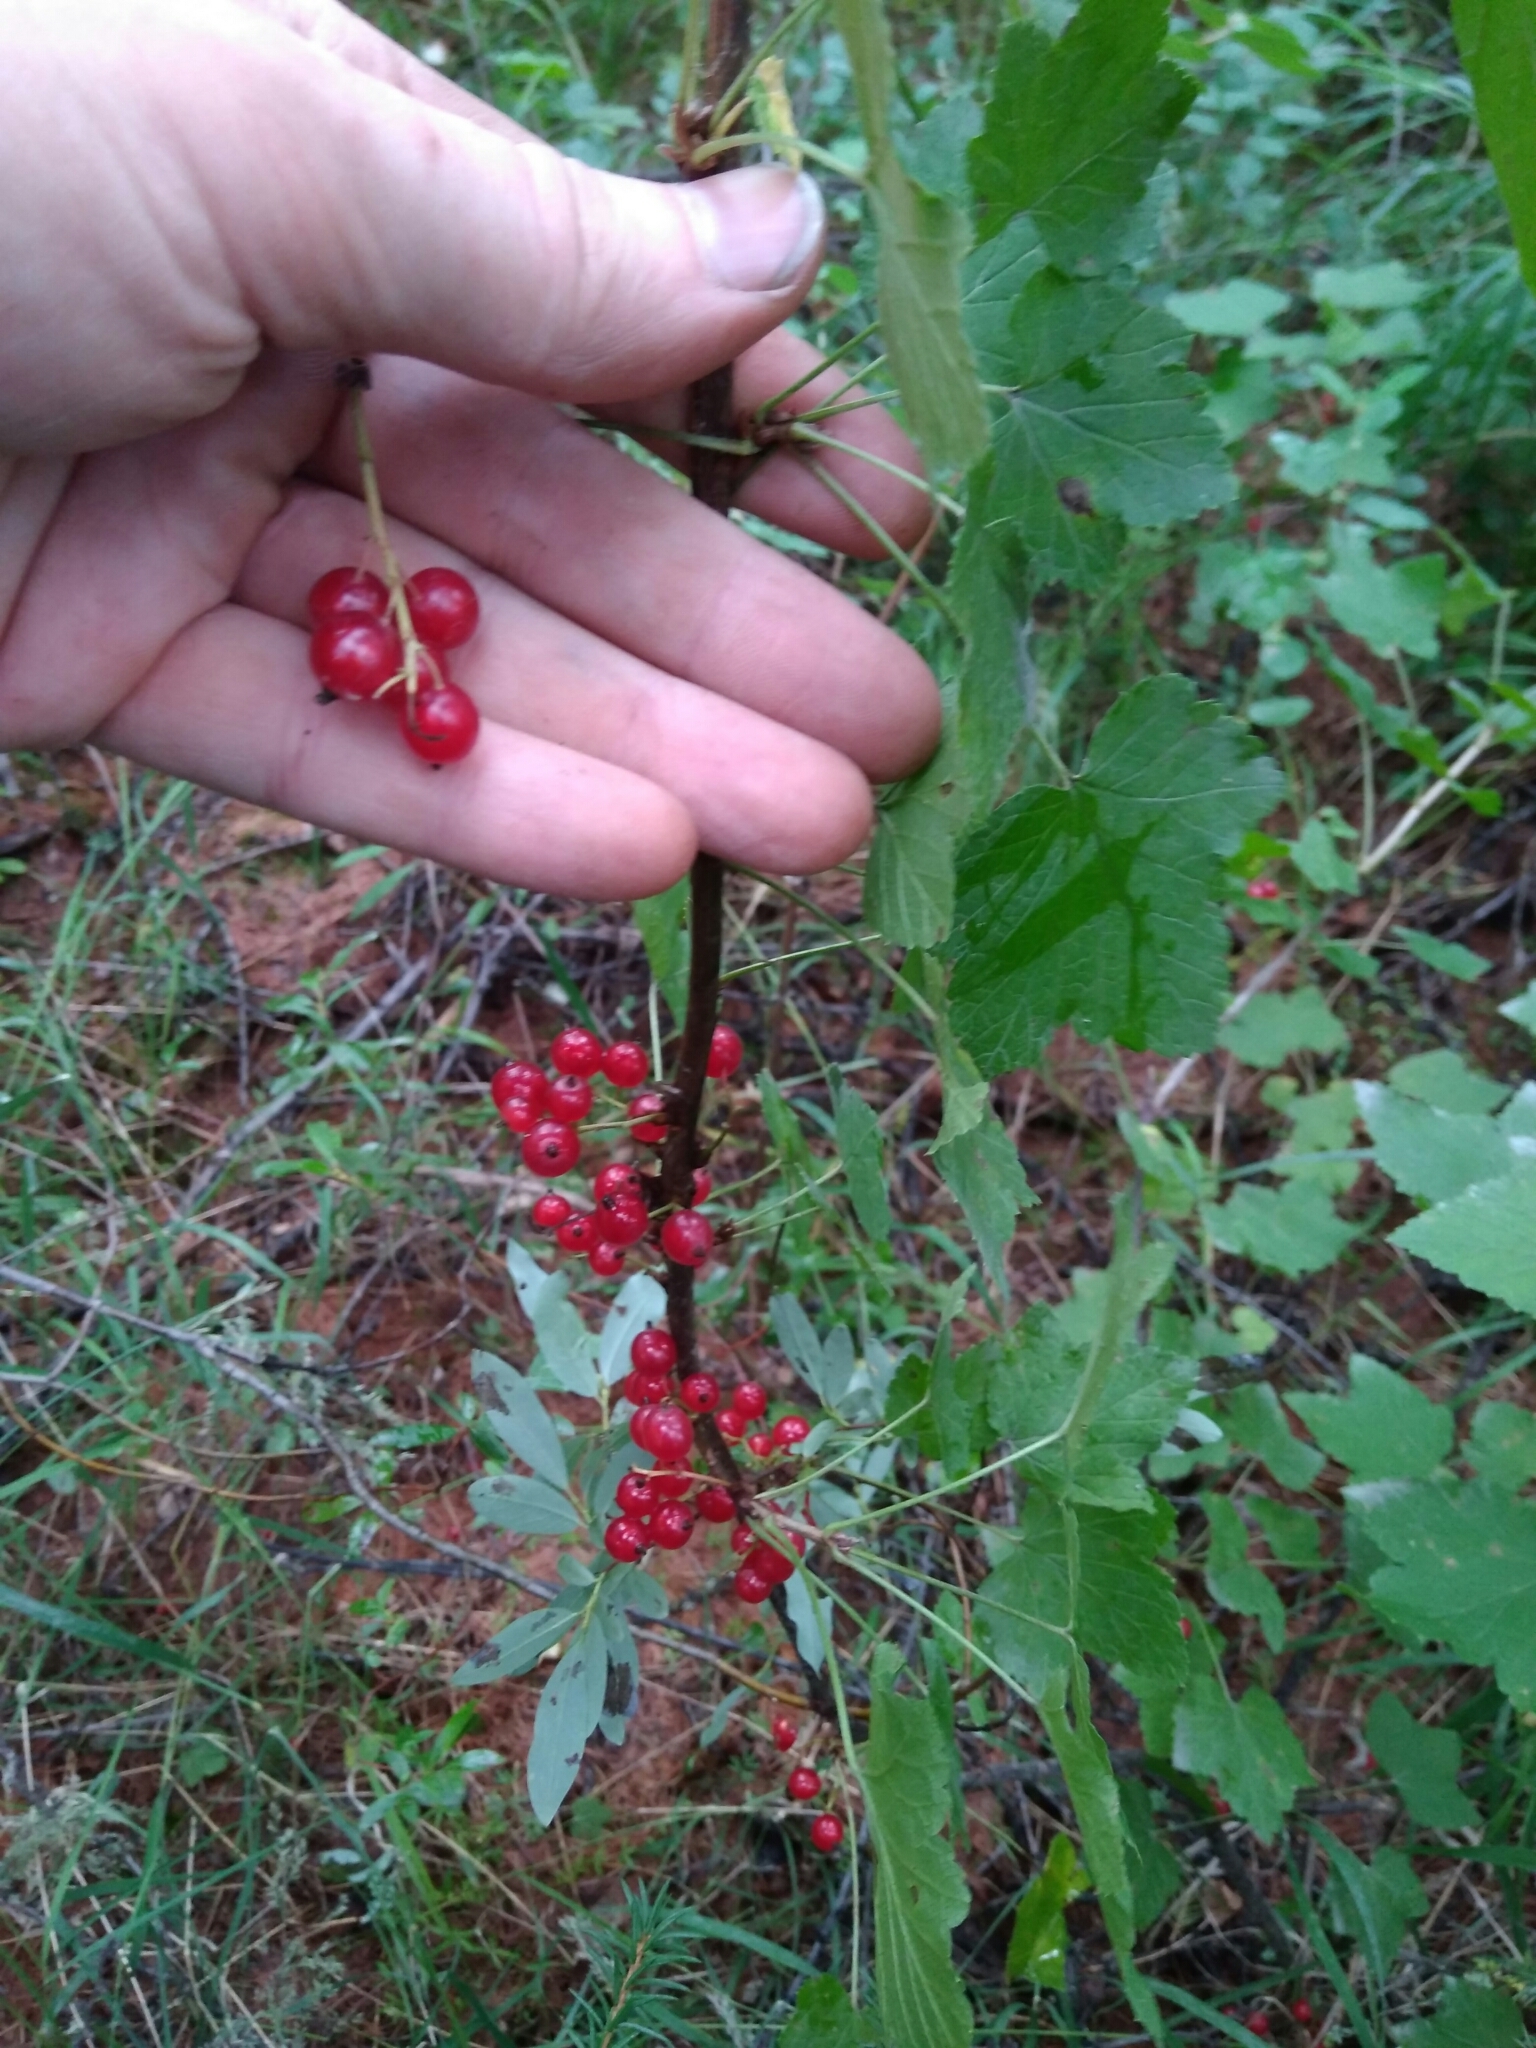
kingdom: Plantae
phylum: Tracheophyta
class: Magnoliopsida
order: Saxifragales
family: Grossulariaceae
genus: Ribes
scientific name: Ribes spicatum
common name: Downy currant
